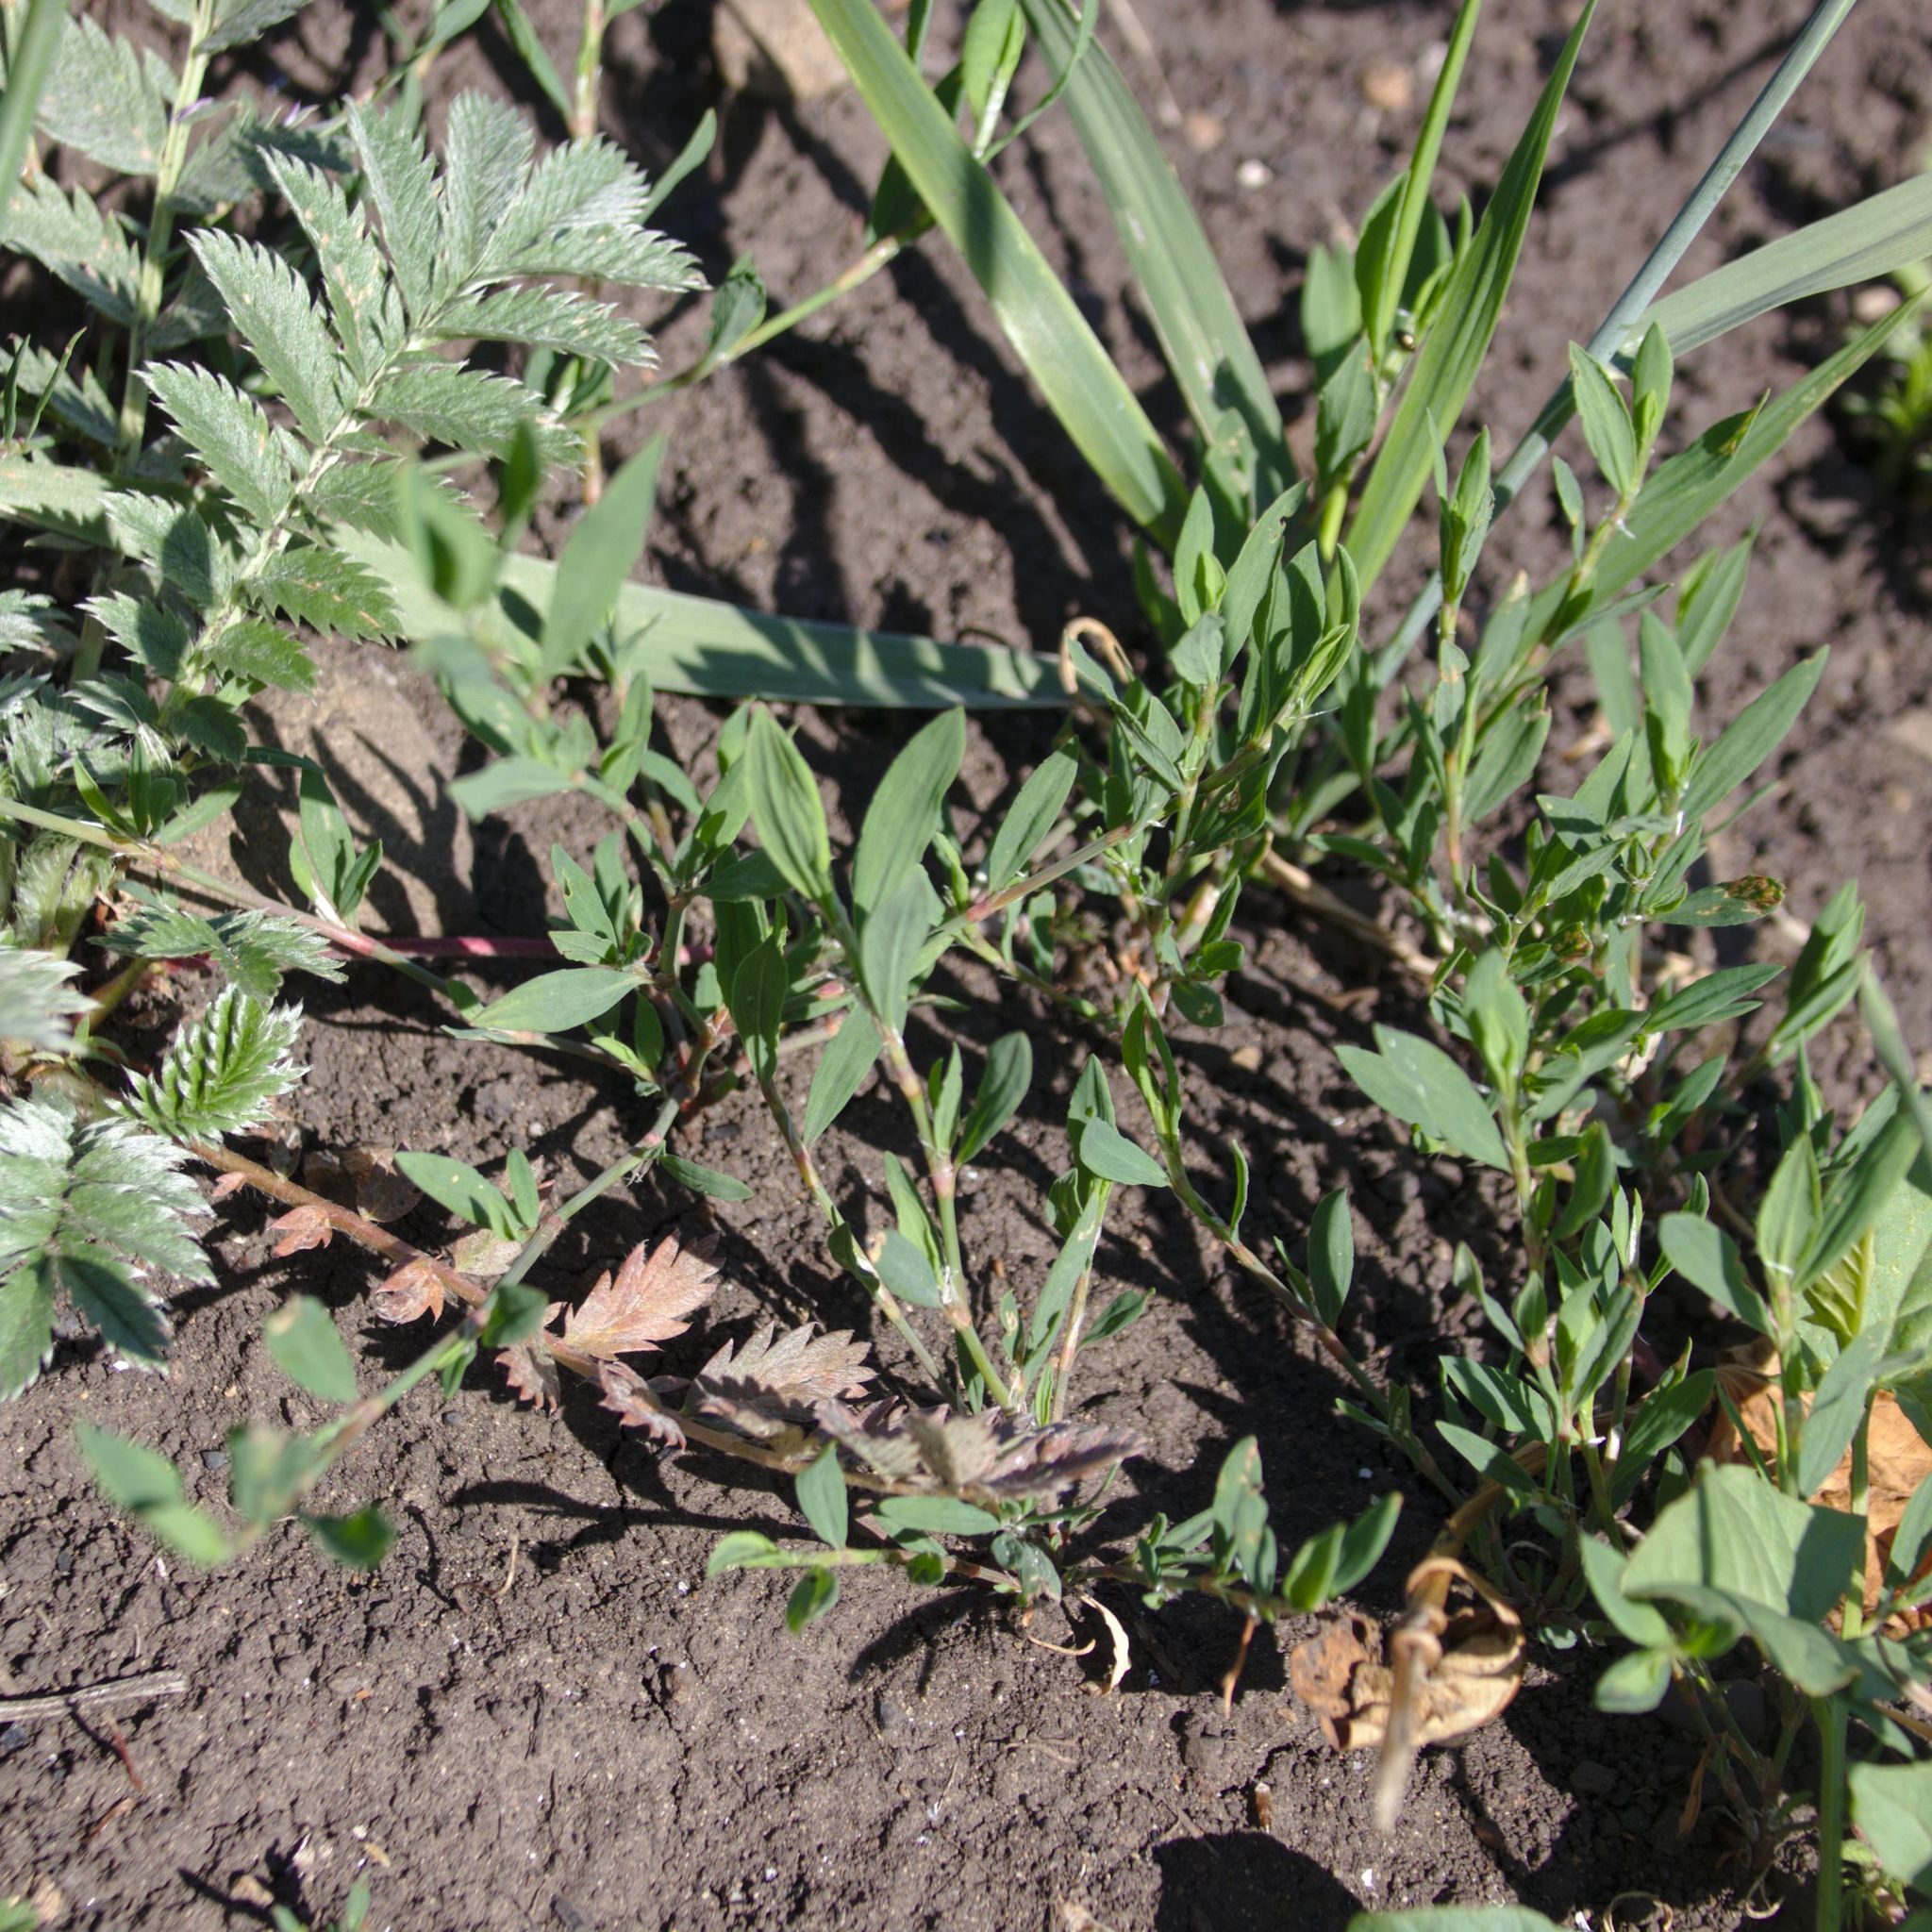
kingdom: Plantae
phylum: Tracheophyta
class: Magnoliopsida
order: Caryophyllales
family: Polygonaceae
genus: Polygonum
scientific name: Polygonum aviculare
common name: Prostrate knotweed
